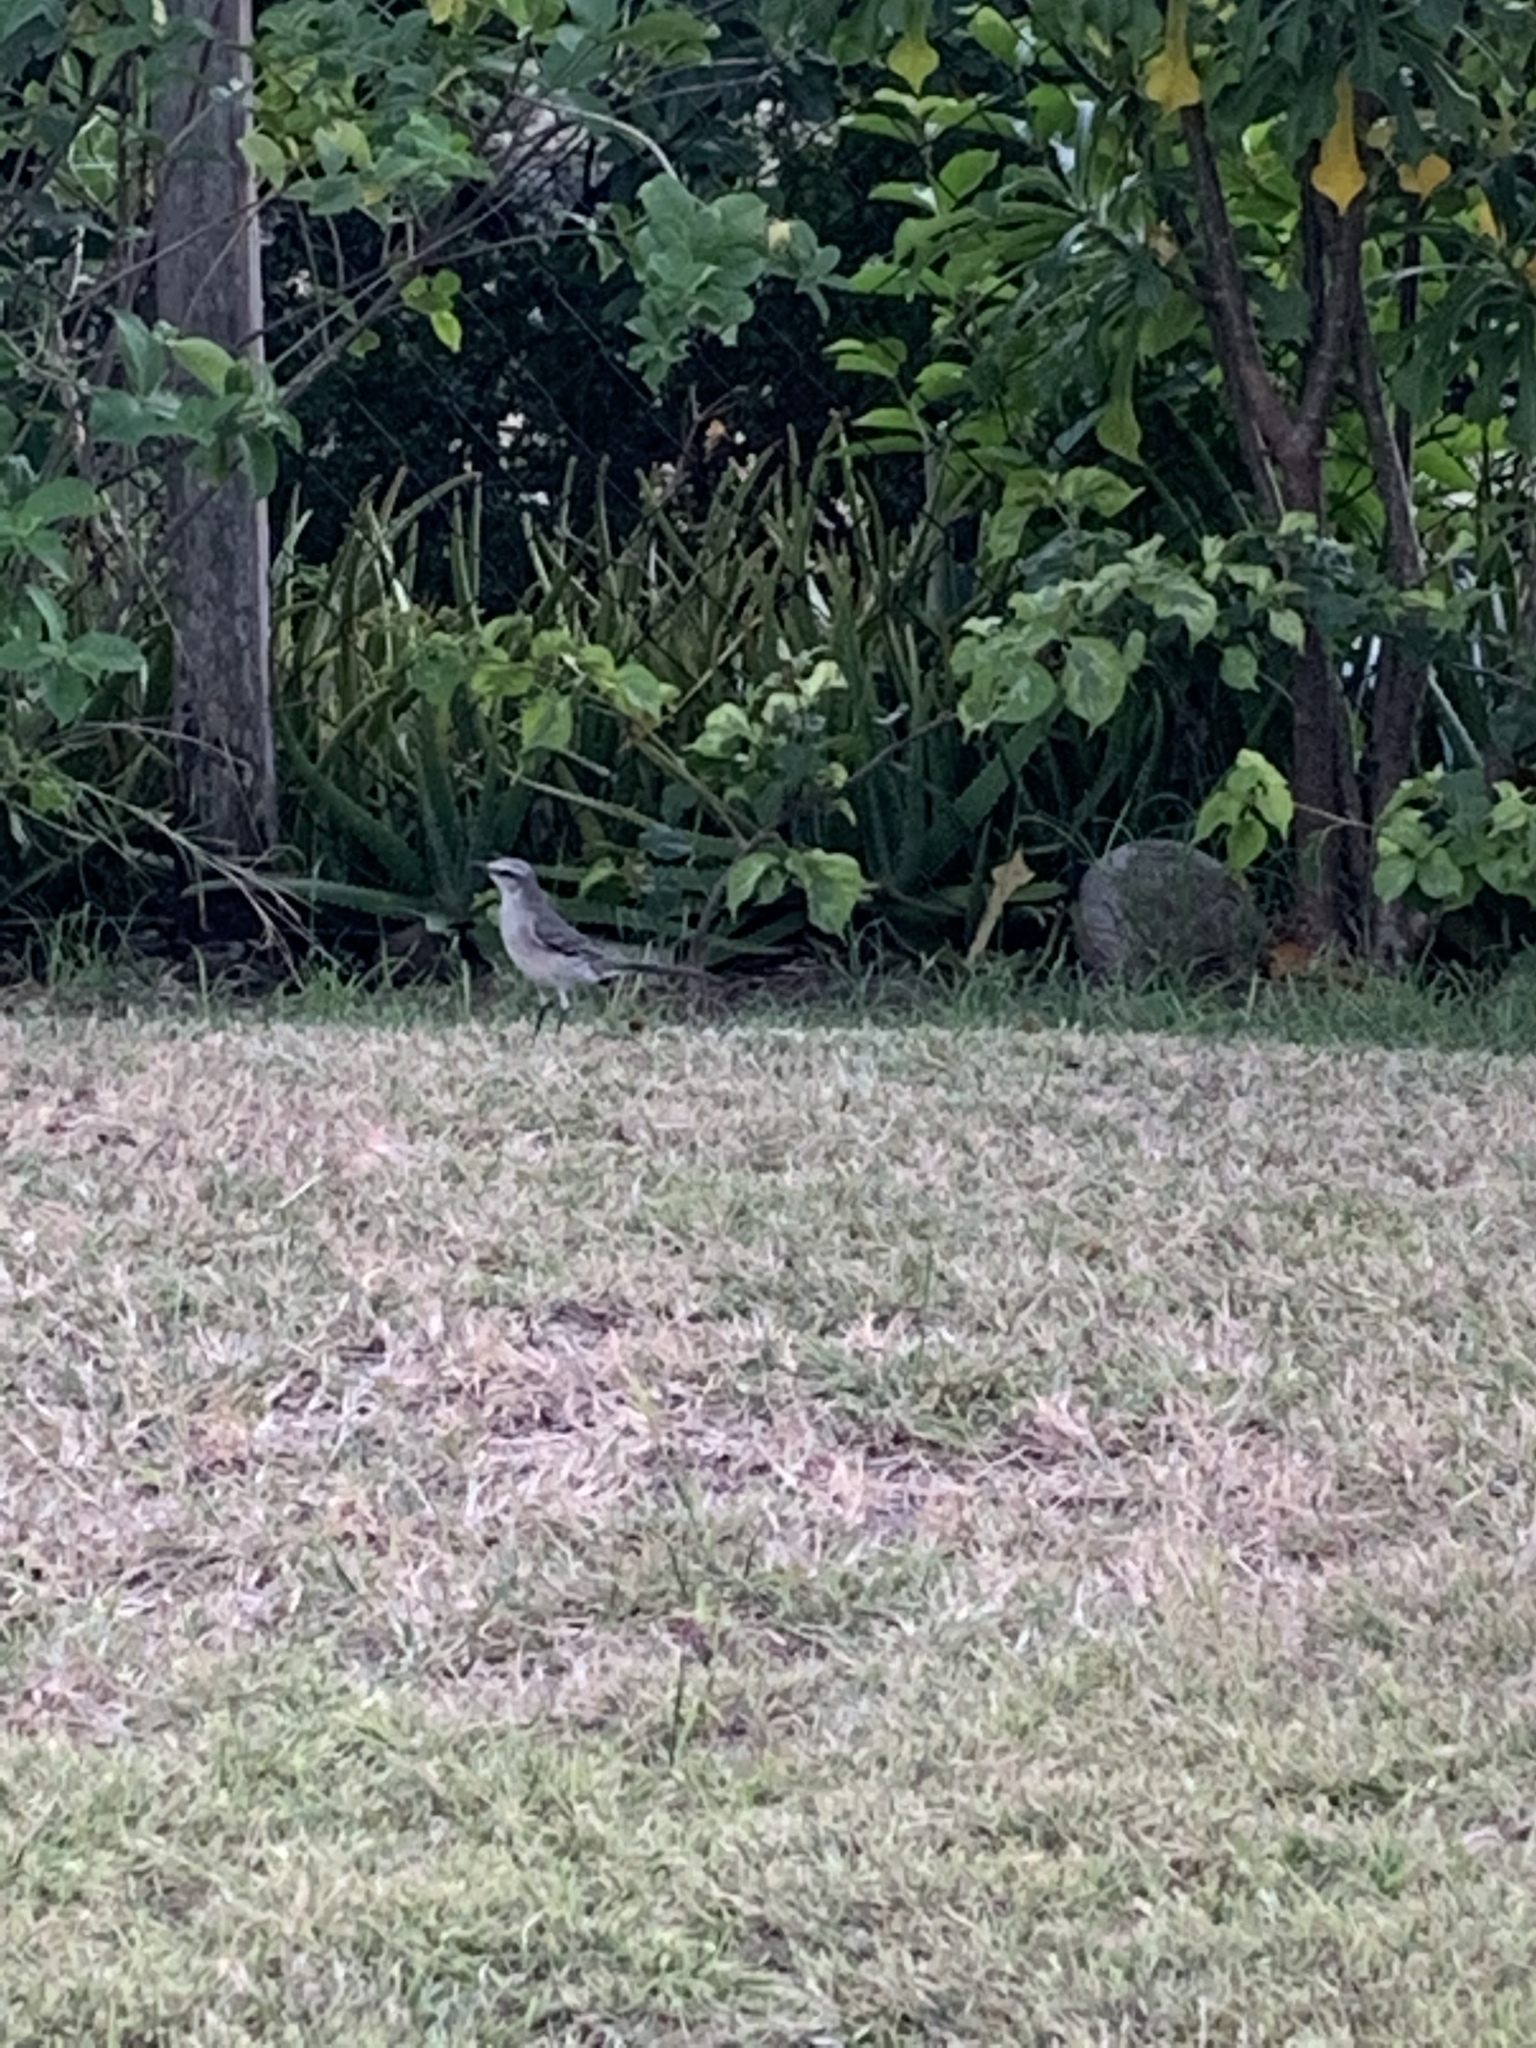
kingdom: Animalia
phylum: Chordata
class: Aves
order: Passeriformes
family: Mimidae
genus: Mimus
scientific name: Mimus gilvus
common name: Tropical mockingbird
